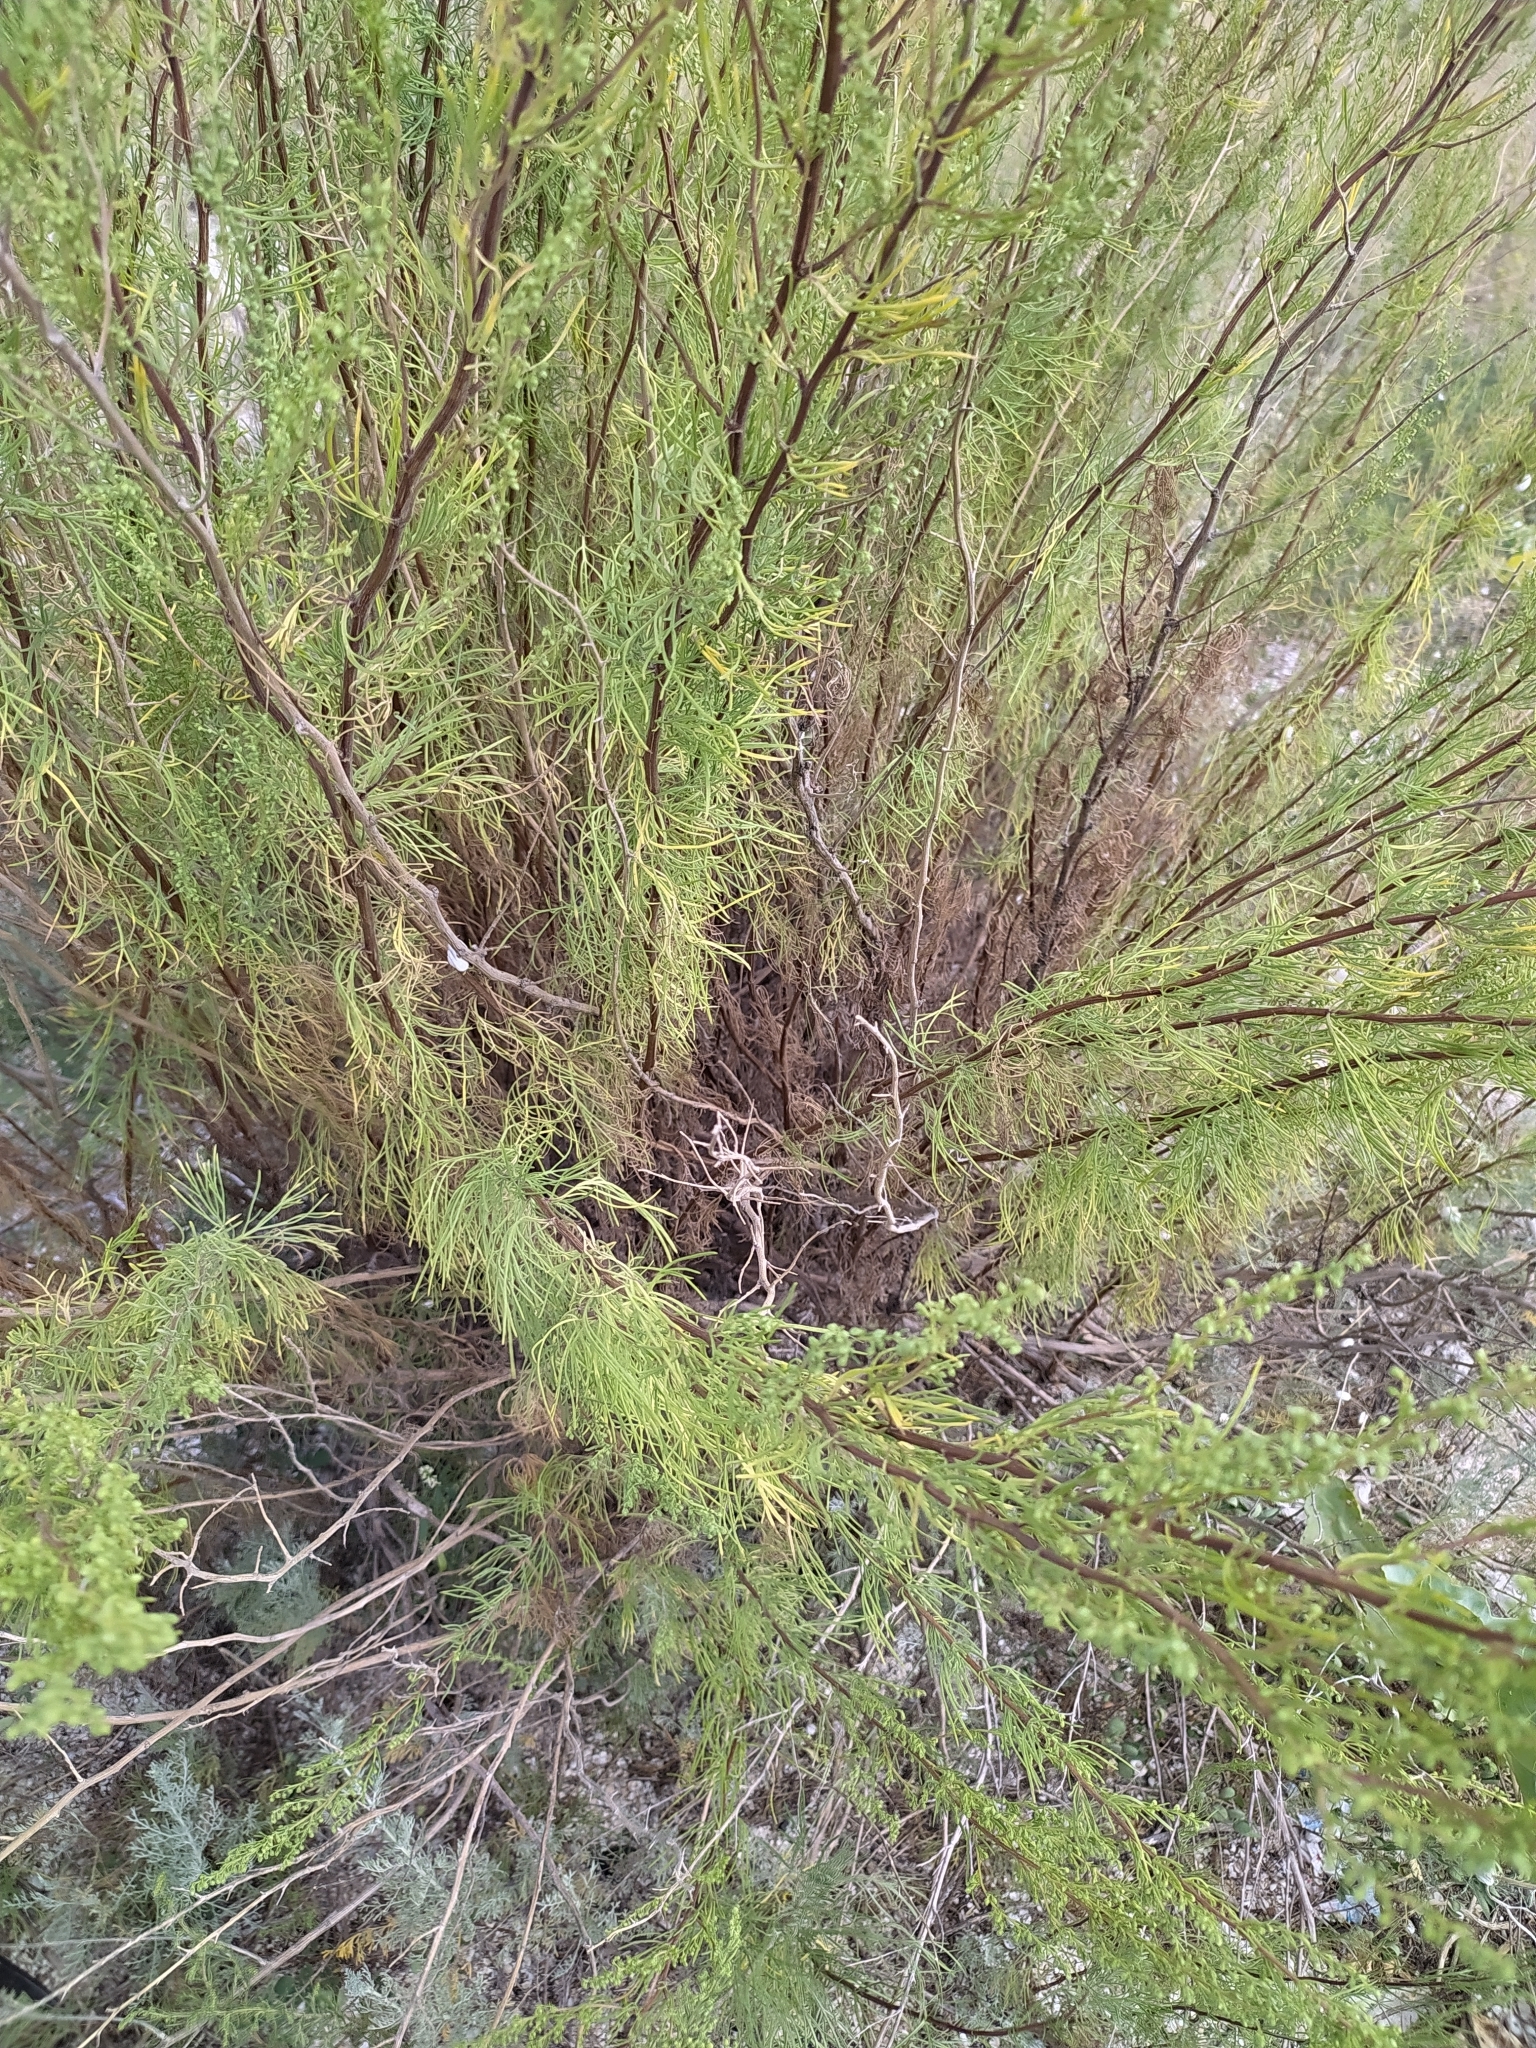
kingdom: Plantae
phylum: Tracheophyta
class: Magnoliopsida
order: Asterales
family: Asteraceae
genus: Artemisia
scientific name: Artemisia arenaria
